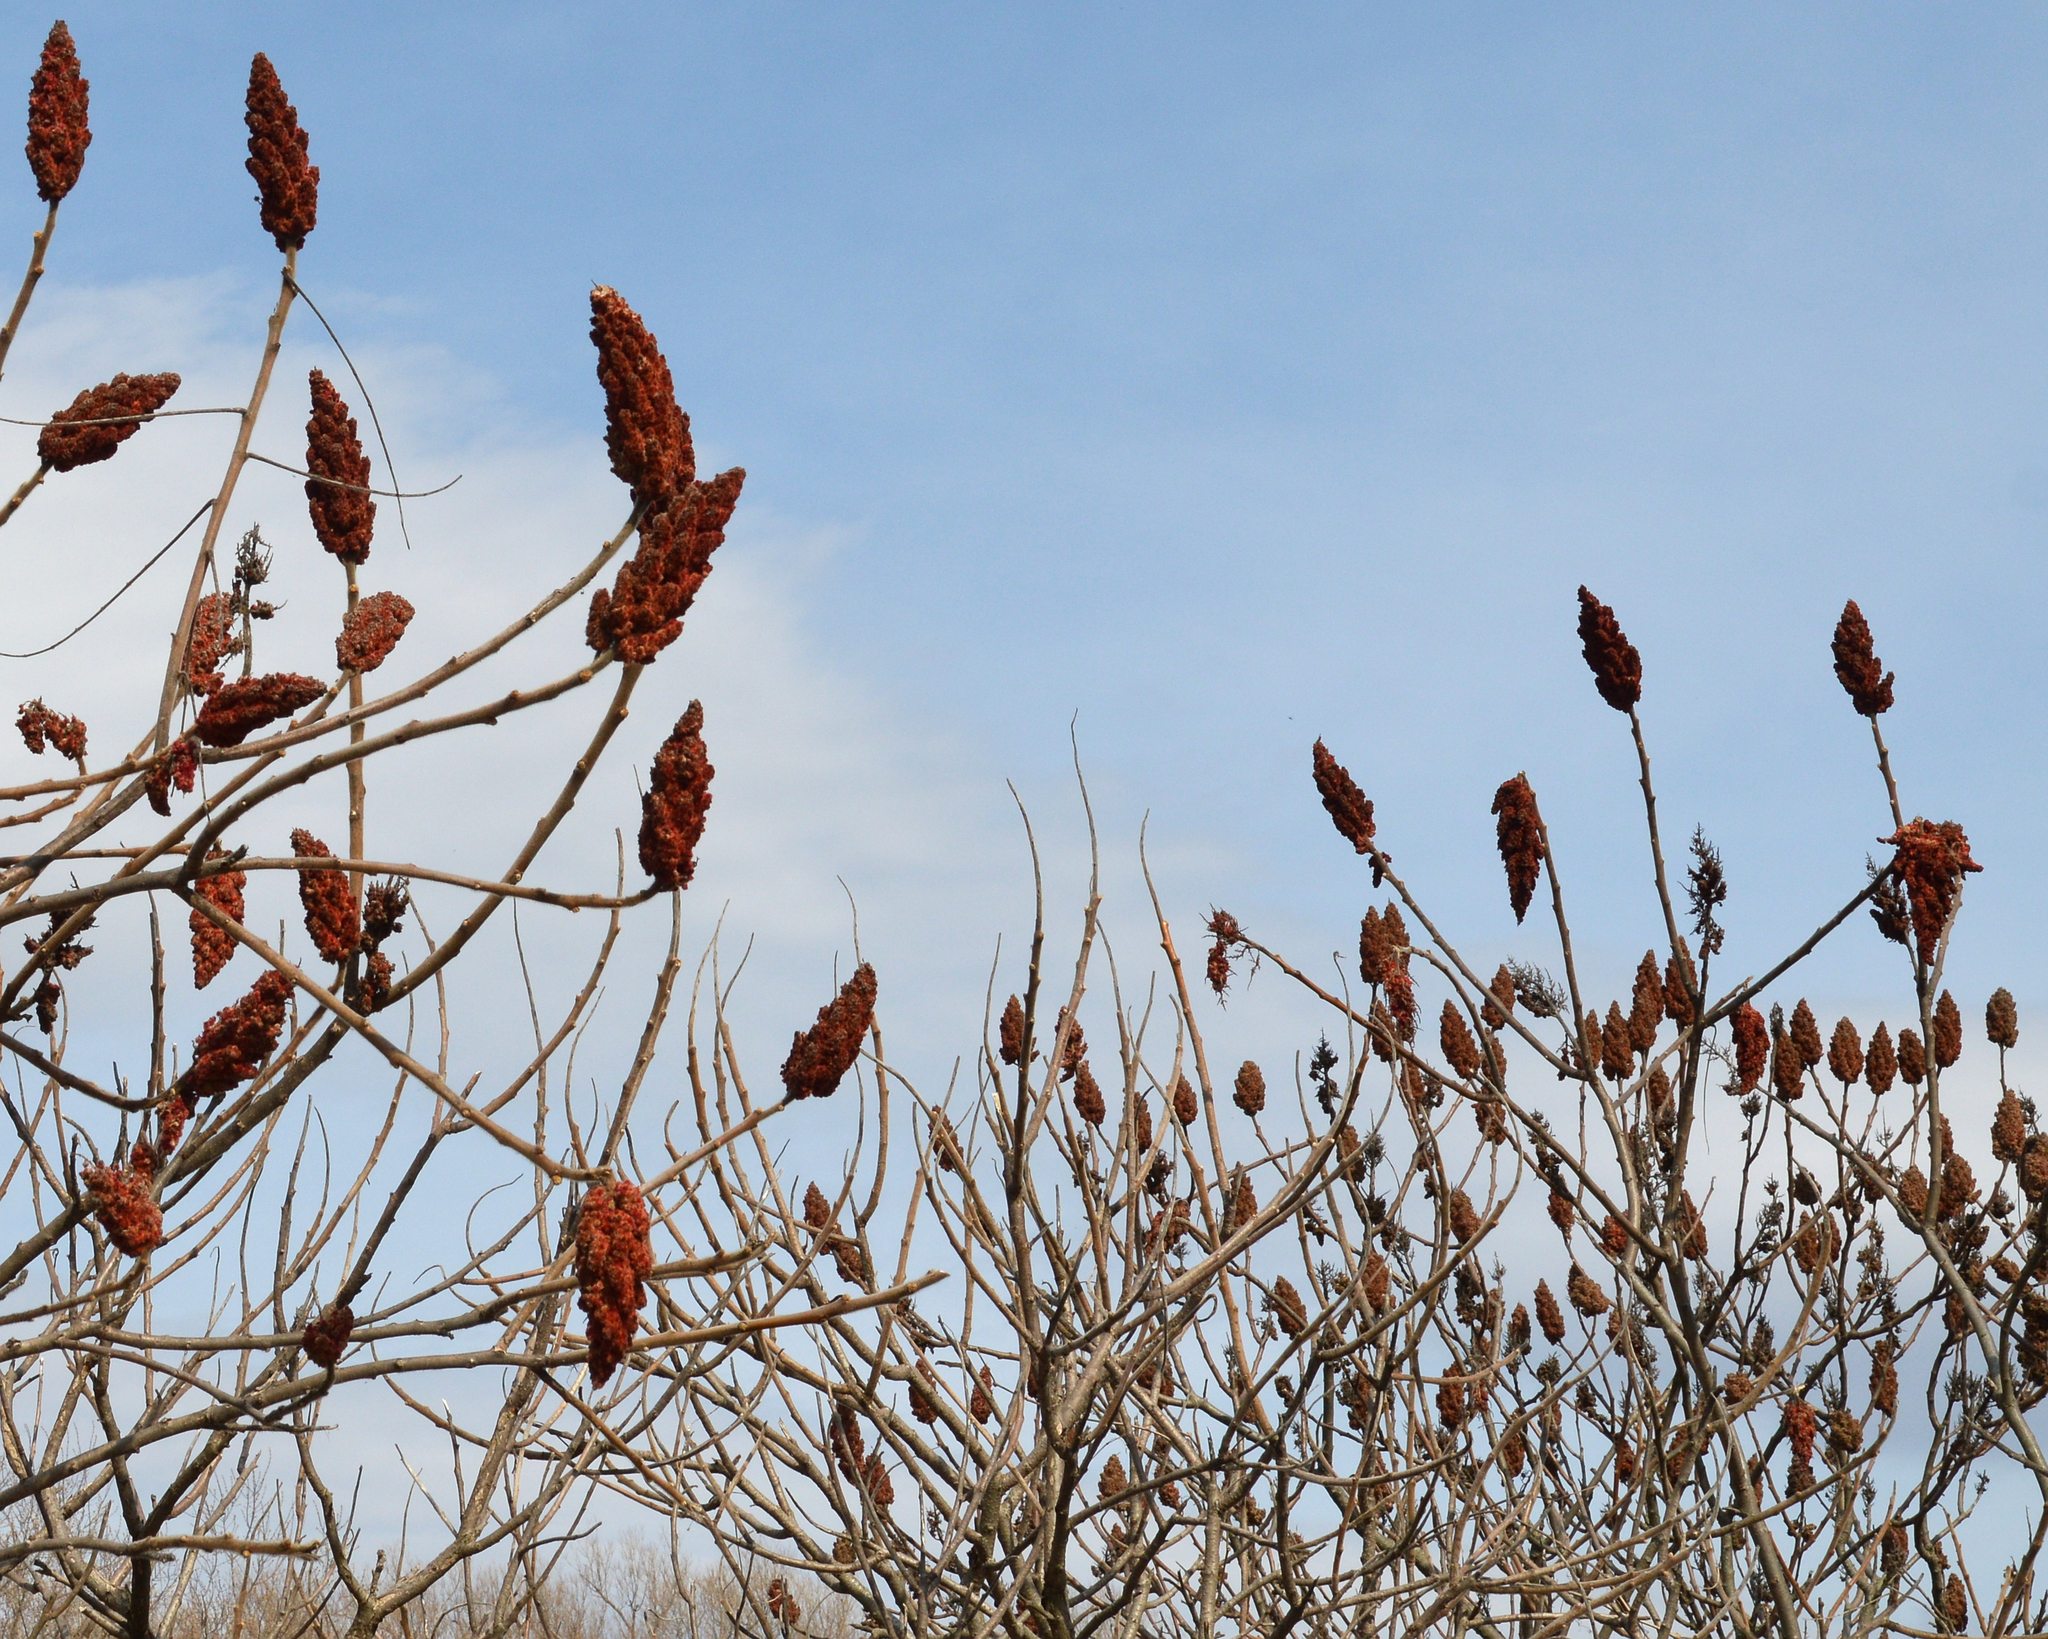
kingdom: Plantae
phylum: Tracheophyta
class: Magnoliopsida
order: Sapindales
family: Anacardiaceae
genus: Rhus
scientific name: Rhus typhina
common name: Staghorn sumac
